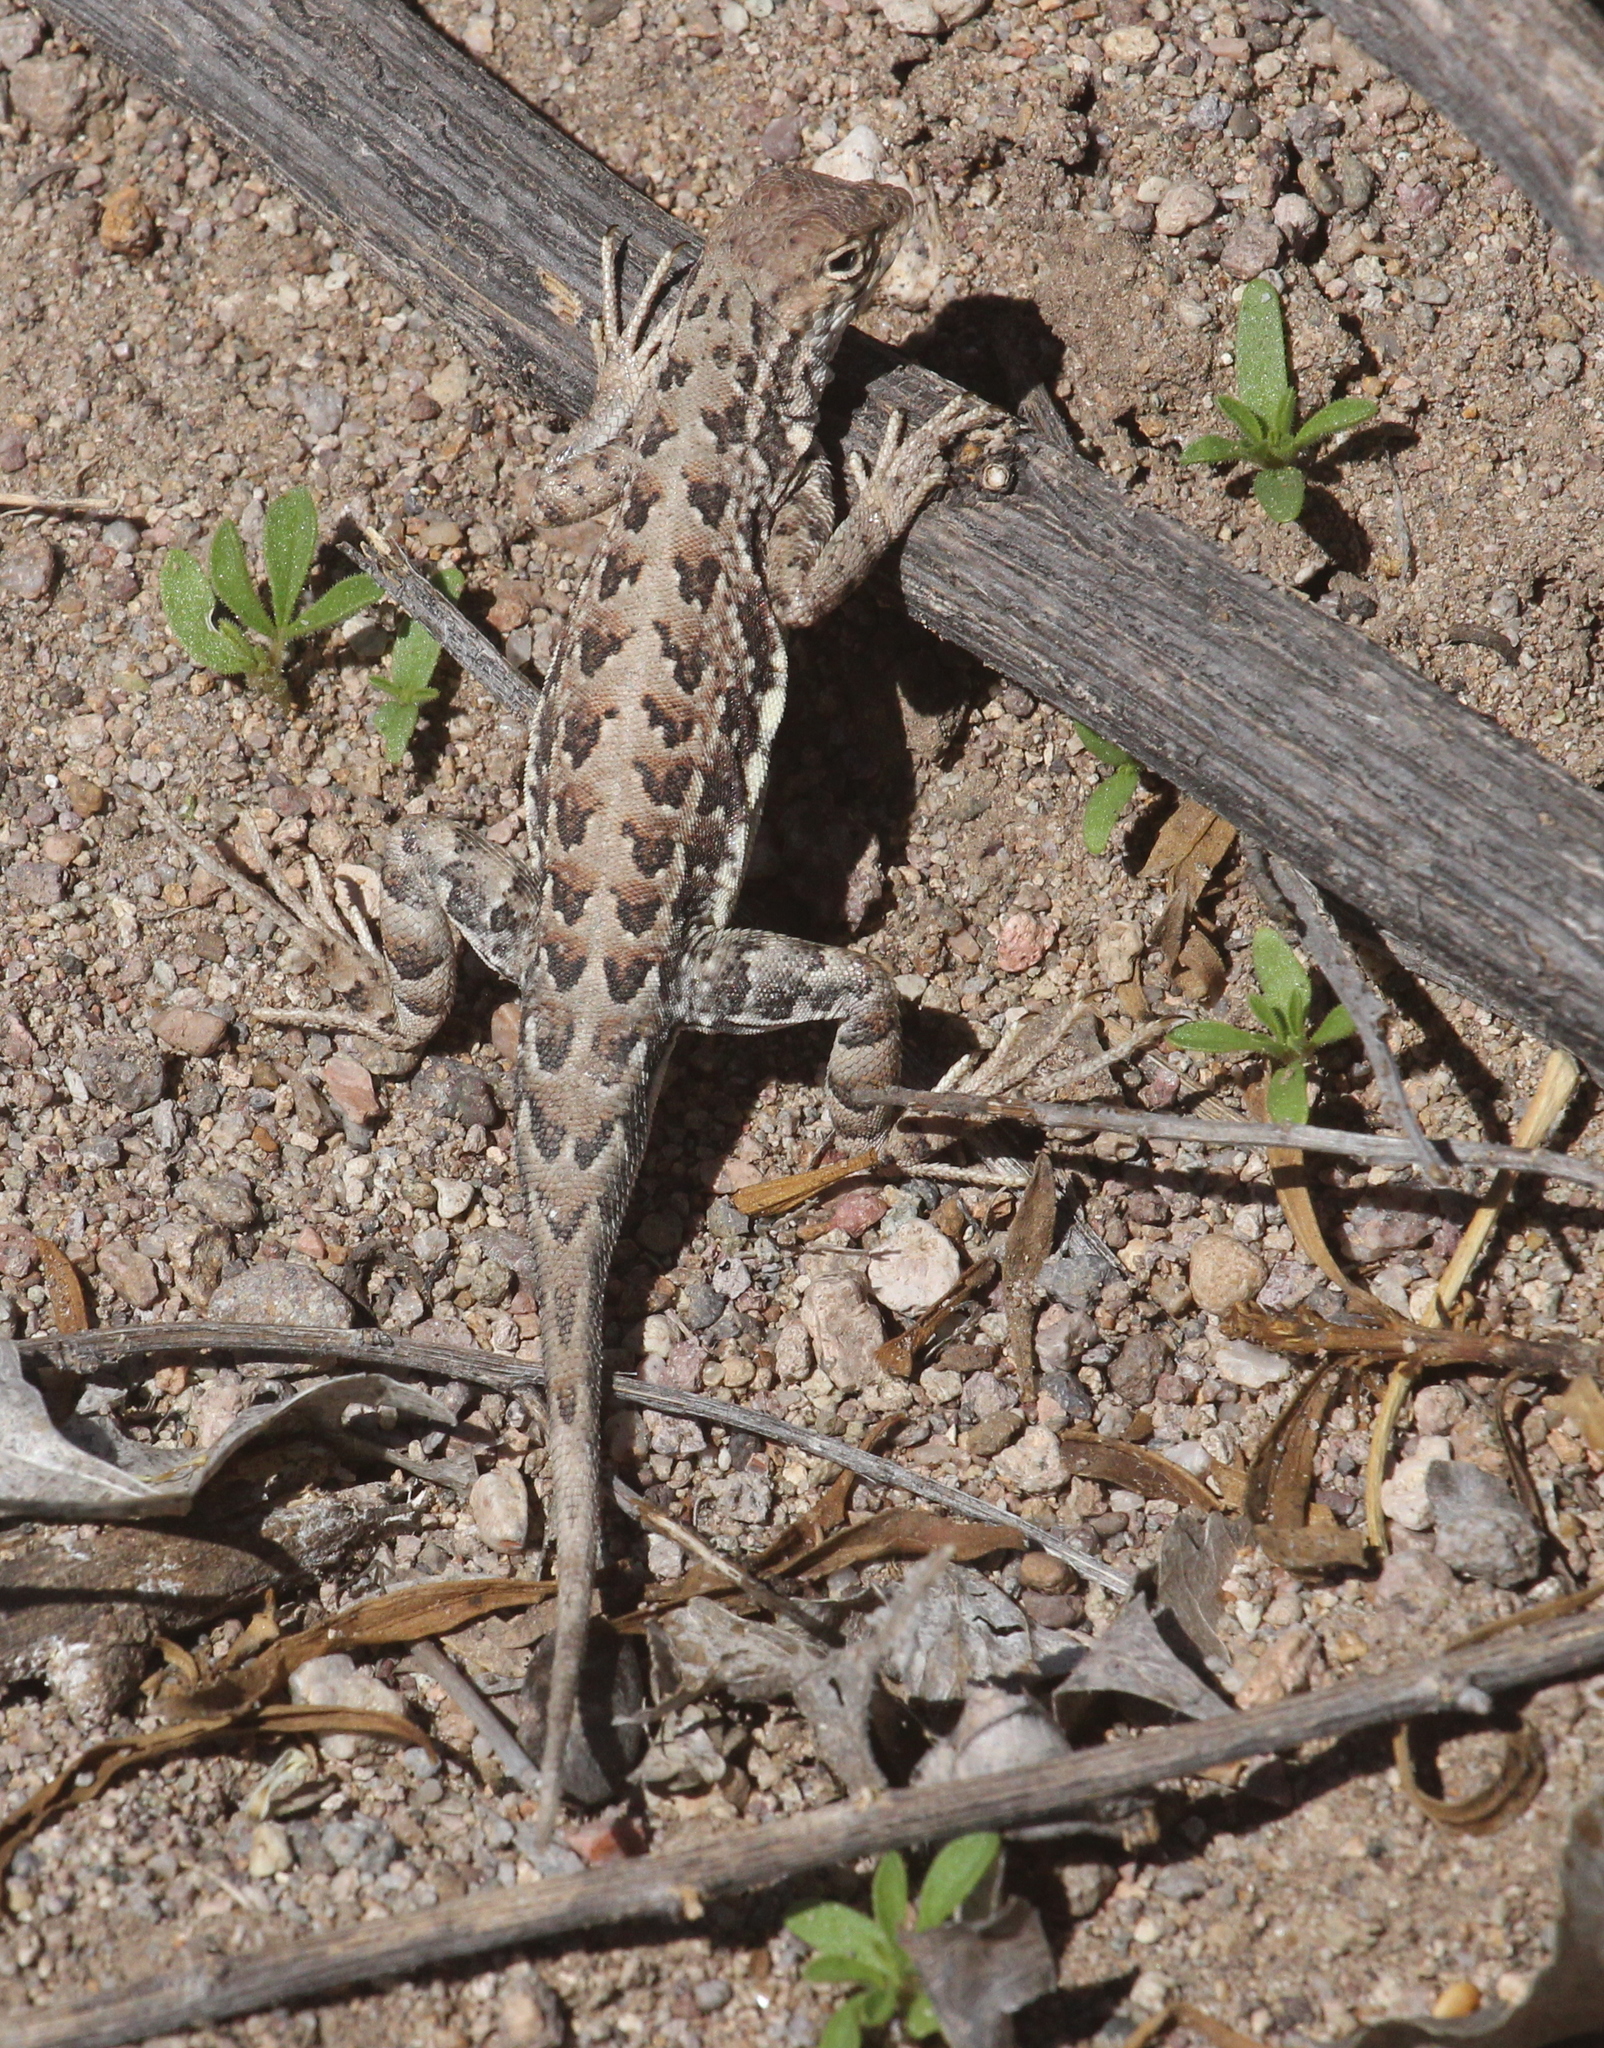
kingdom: Animalia
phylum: Chordata
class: Squamata
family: Phrynosomatidae
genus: Holbrookia
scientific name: Holbrookia elegans
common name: Elegant earless lizard
